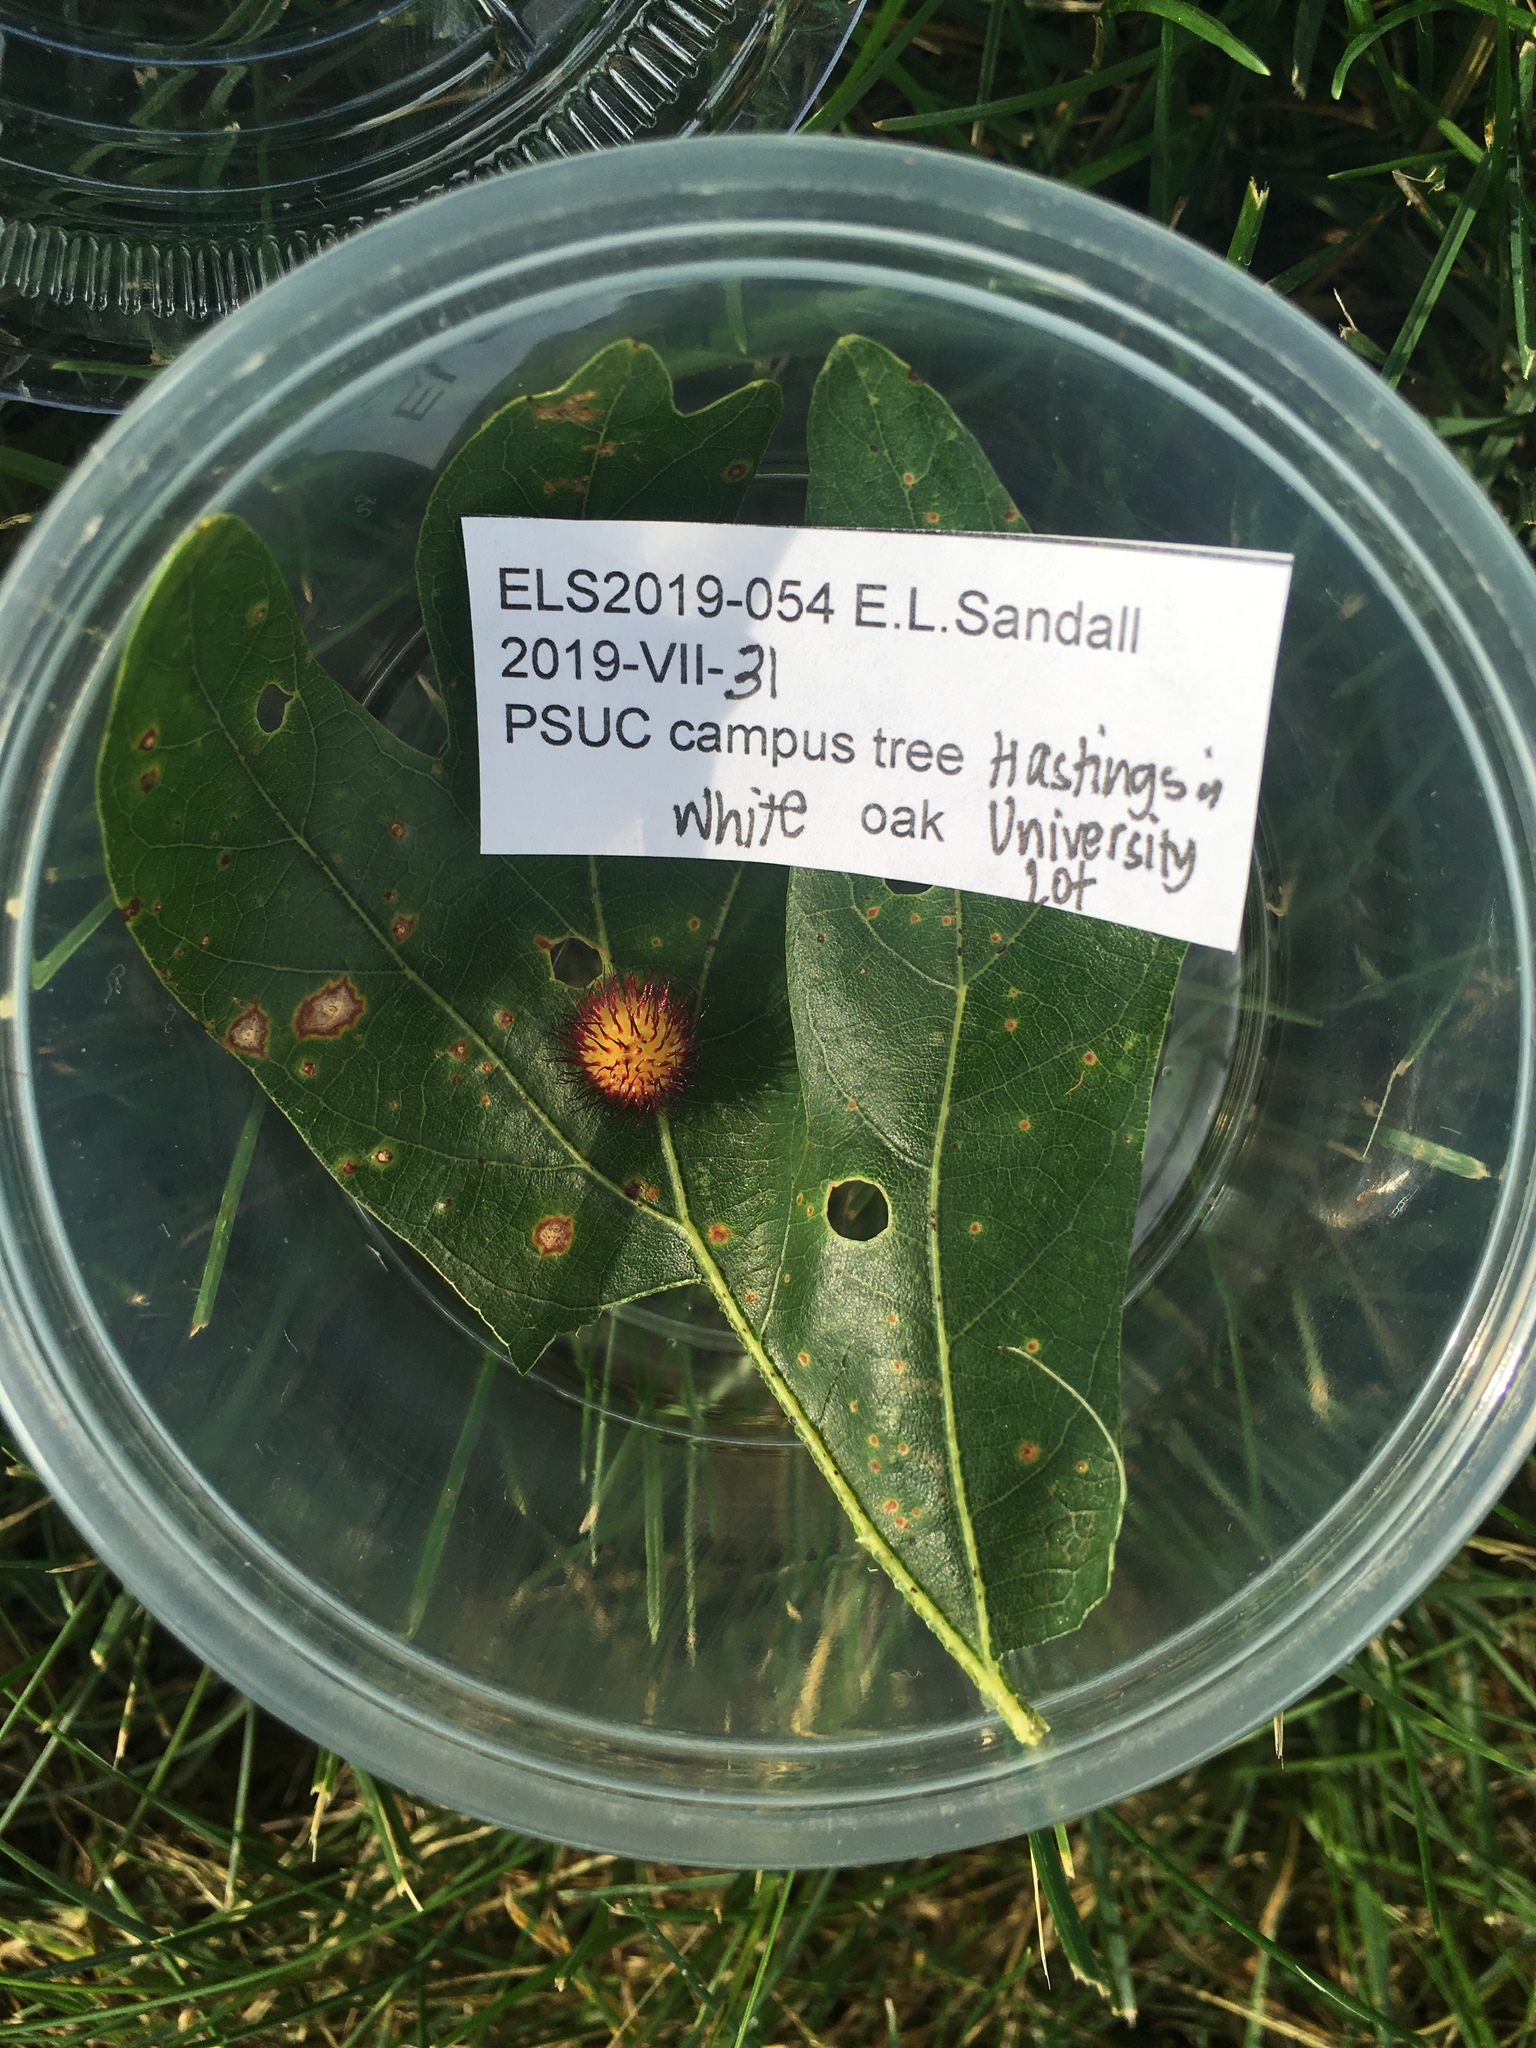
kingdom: Animalia
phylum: Arthropoda
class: Insecta
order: Hymenoptera
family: Cynipidae
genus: Acraspis
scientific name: Acraspis erinacei
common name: Hedgehog gall wasp
